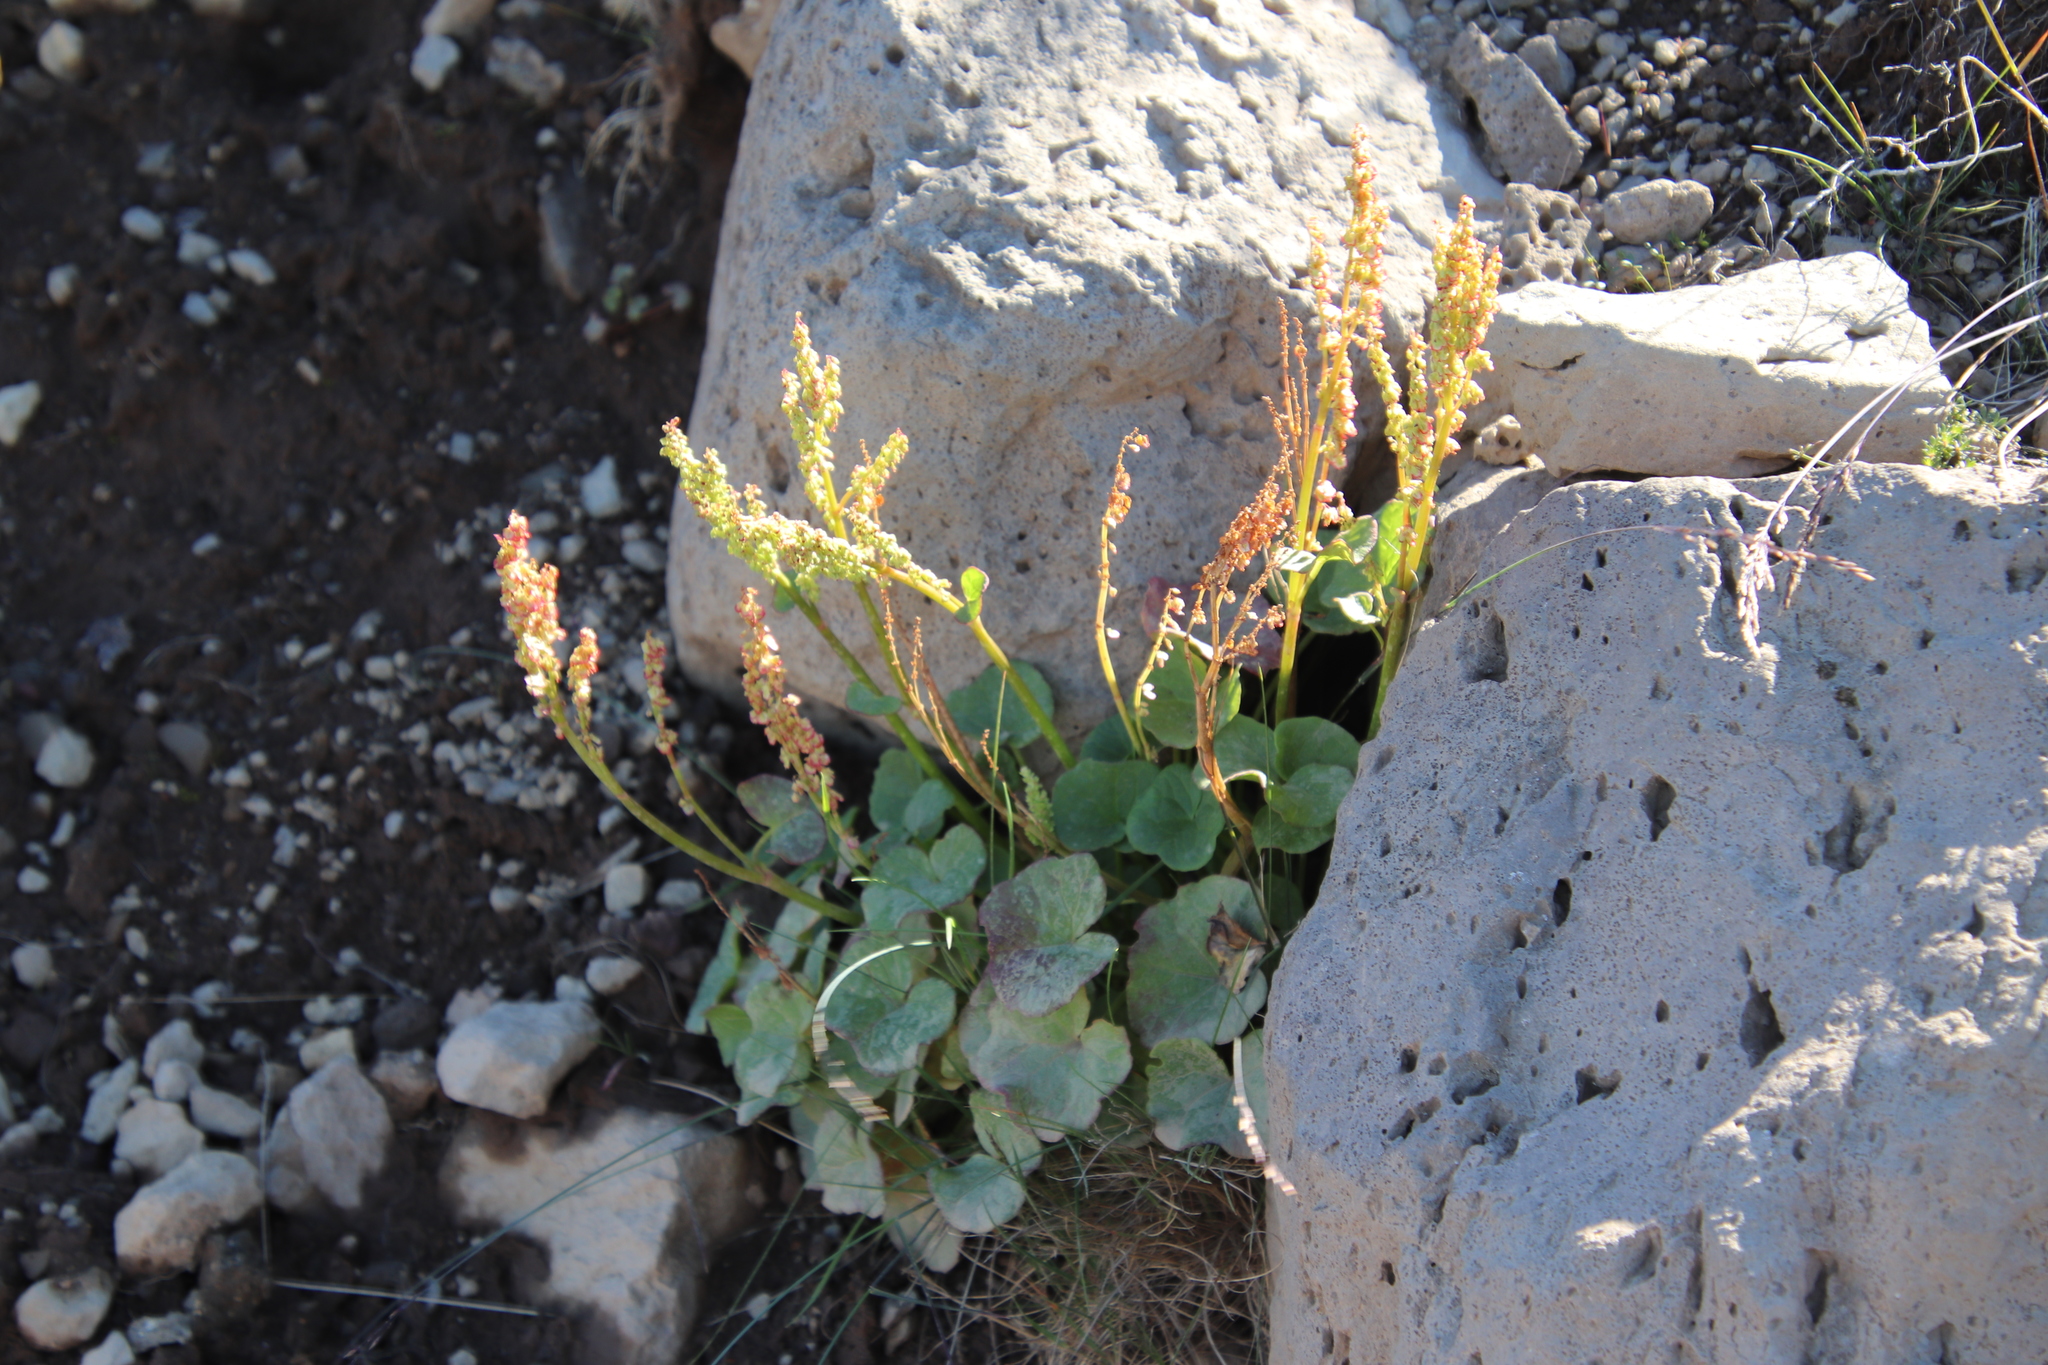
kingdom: Plantae
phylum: Tracheophyta
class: Magnoliopsida
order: Caryophyllales
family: Polygonaceae
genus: Oxyria
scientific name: Oxyria digyna
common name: Alpine mountain-sorrel
